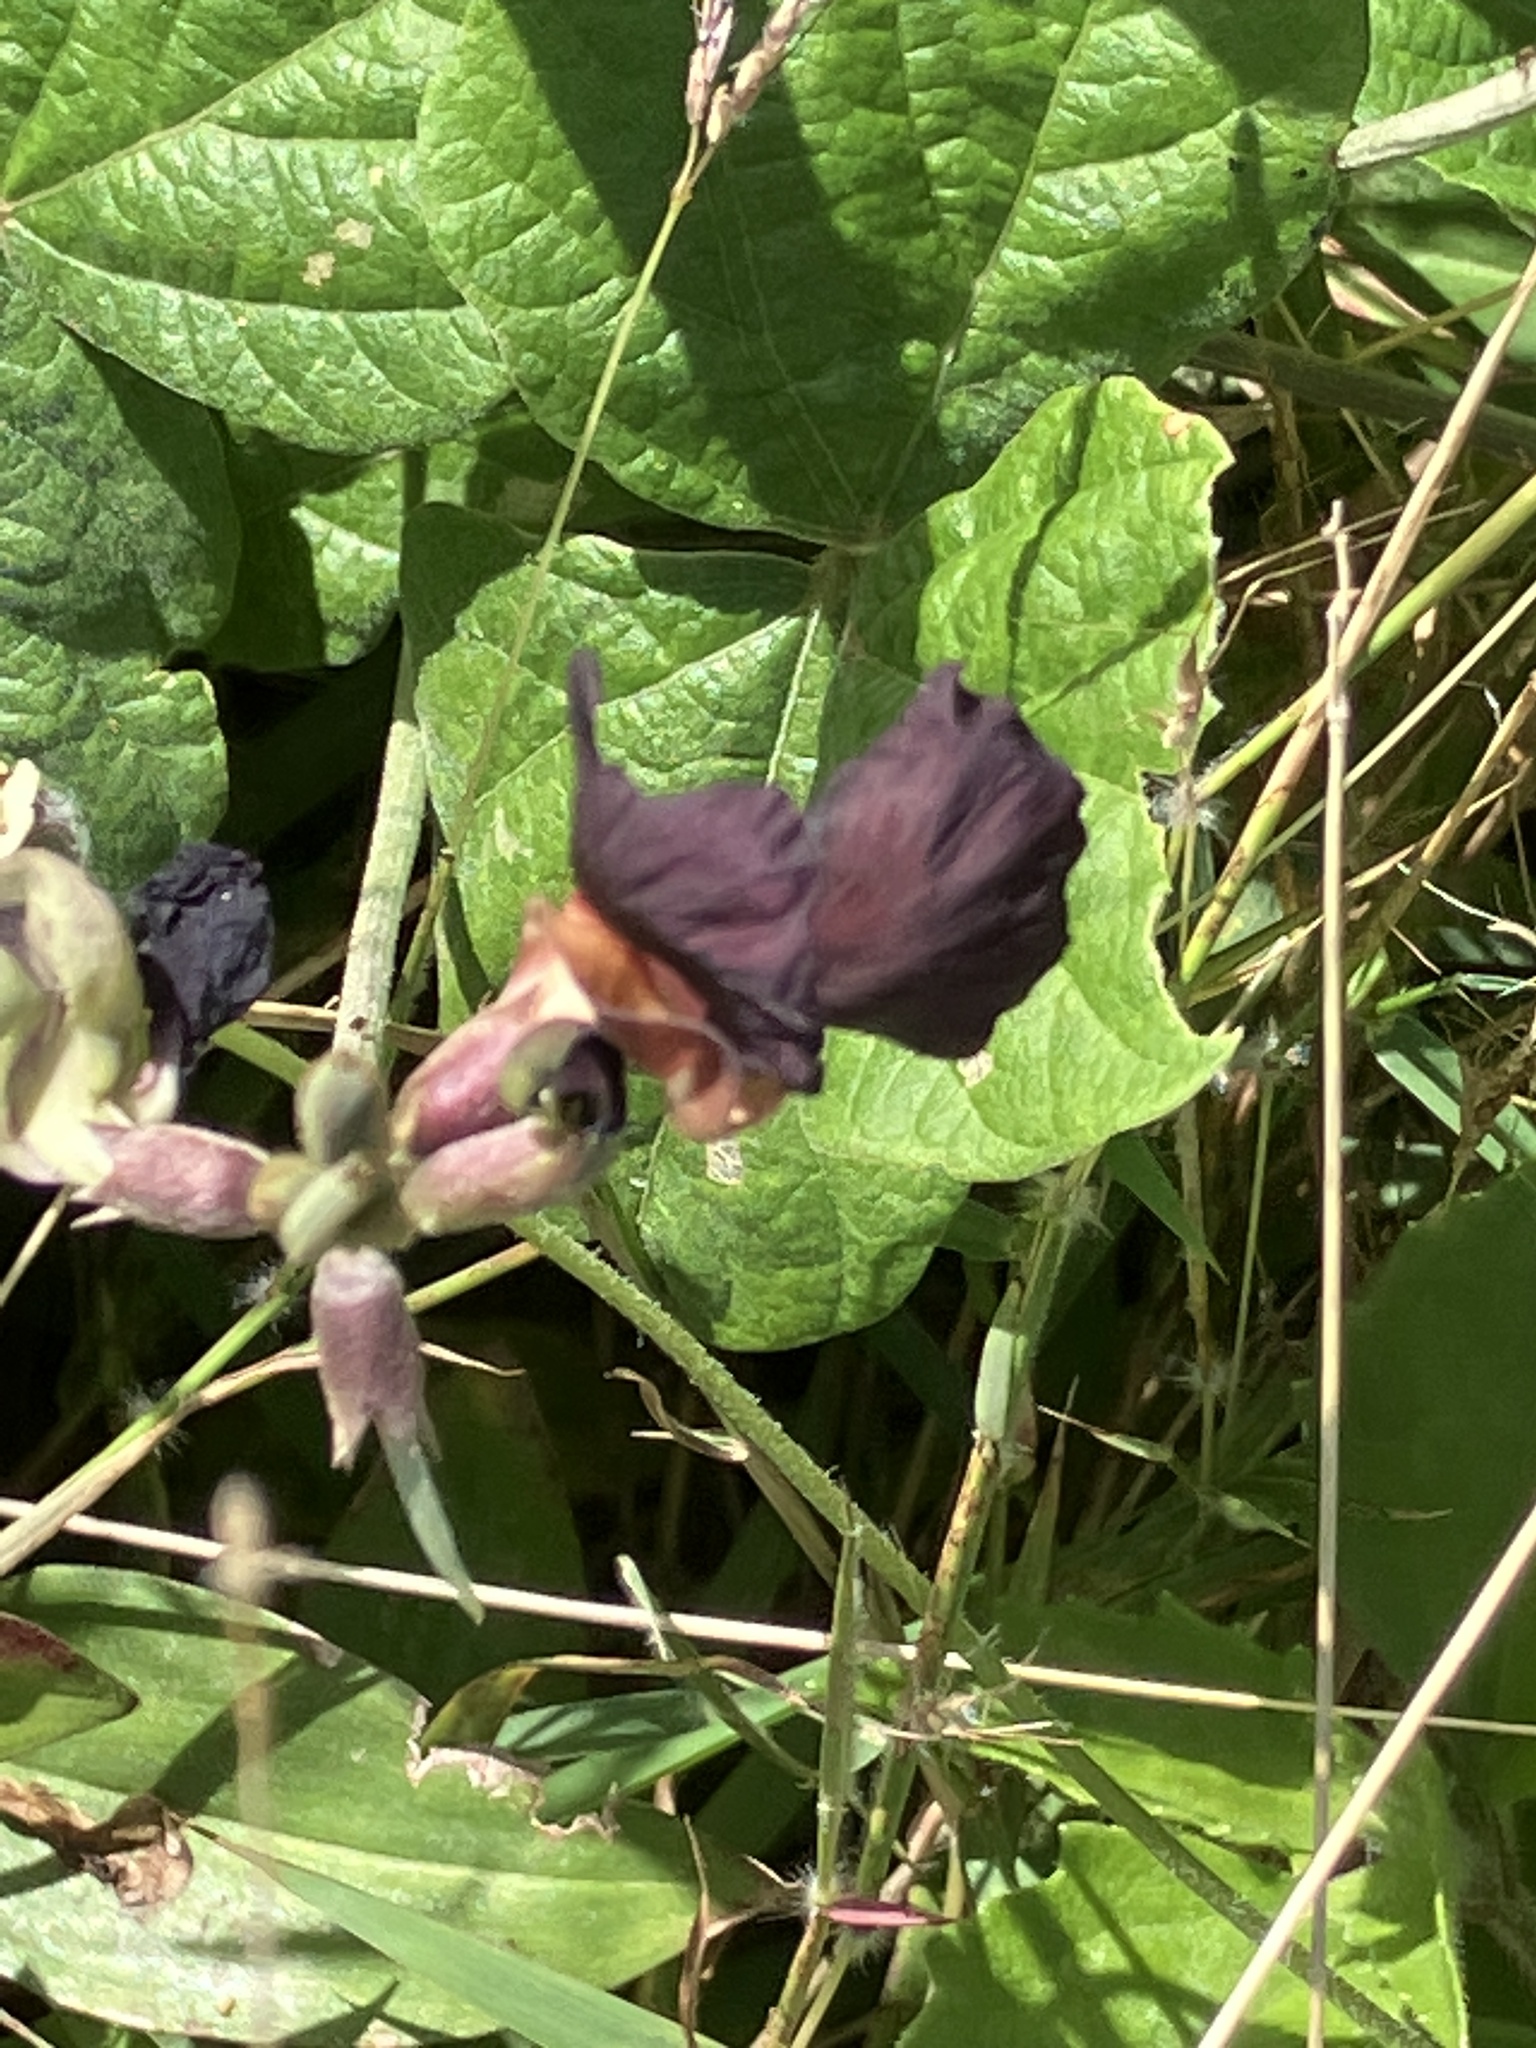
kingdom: Plantae
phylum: Tracheophyta
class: Magnoliopsida
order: Fabales
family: Fabaceae
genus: Macroptilium
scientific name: Macroptilium atropurpureum
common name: Purple bushbean
